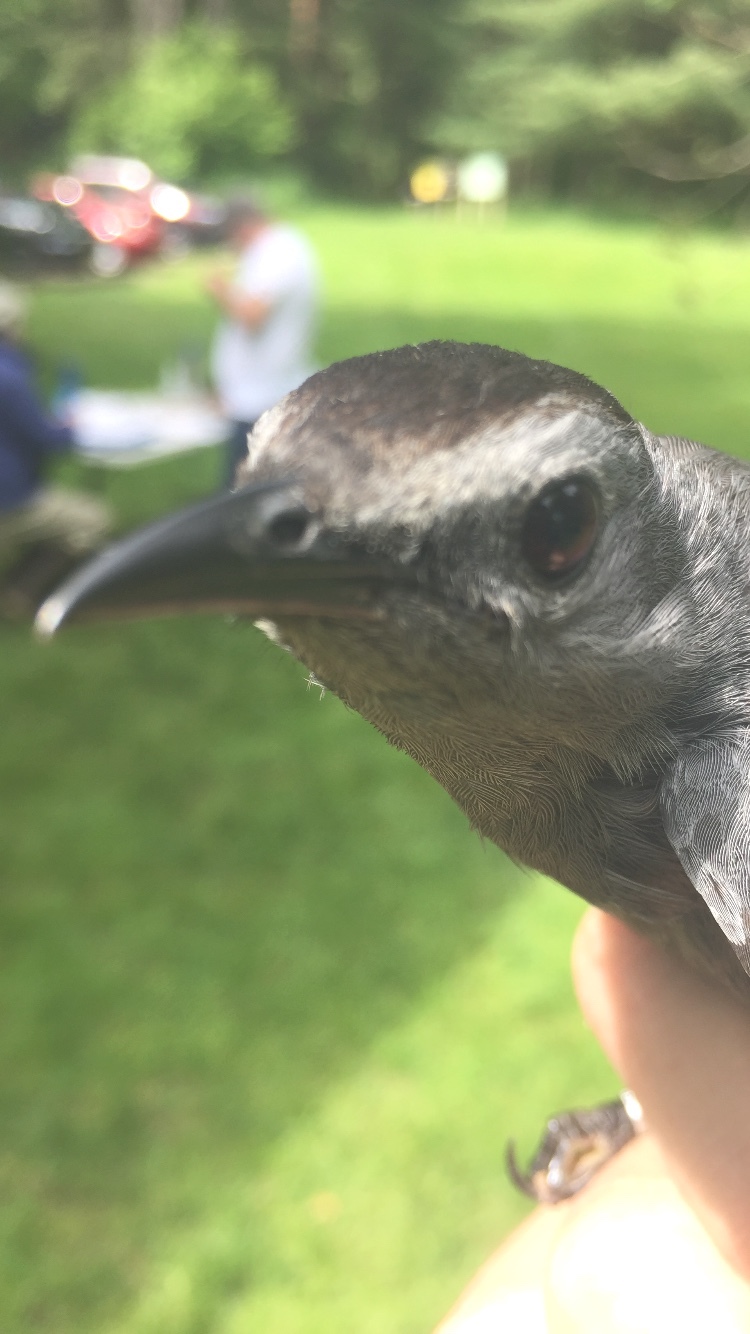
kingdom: Animalia
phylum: Chordata
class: Aves
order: Passeriformes
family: Mimidae
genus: Dumetella
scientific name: Dumetella carolinensis
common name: Gray catbird
